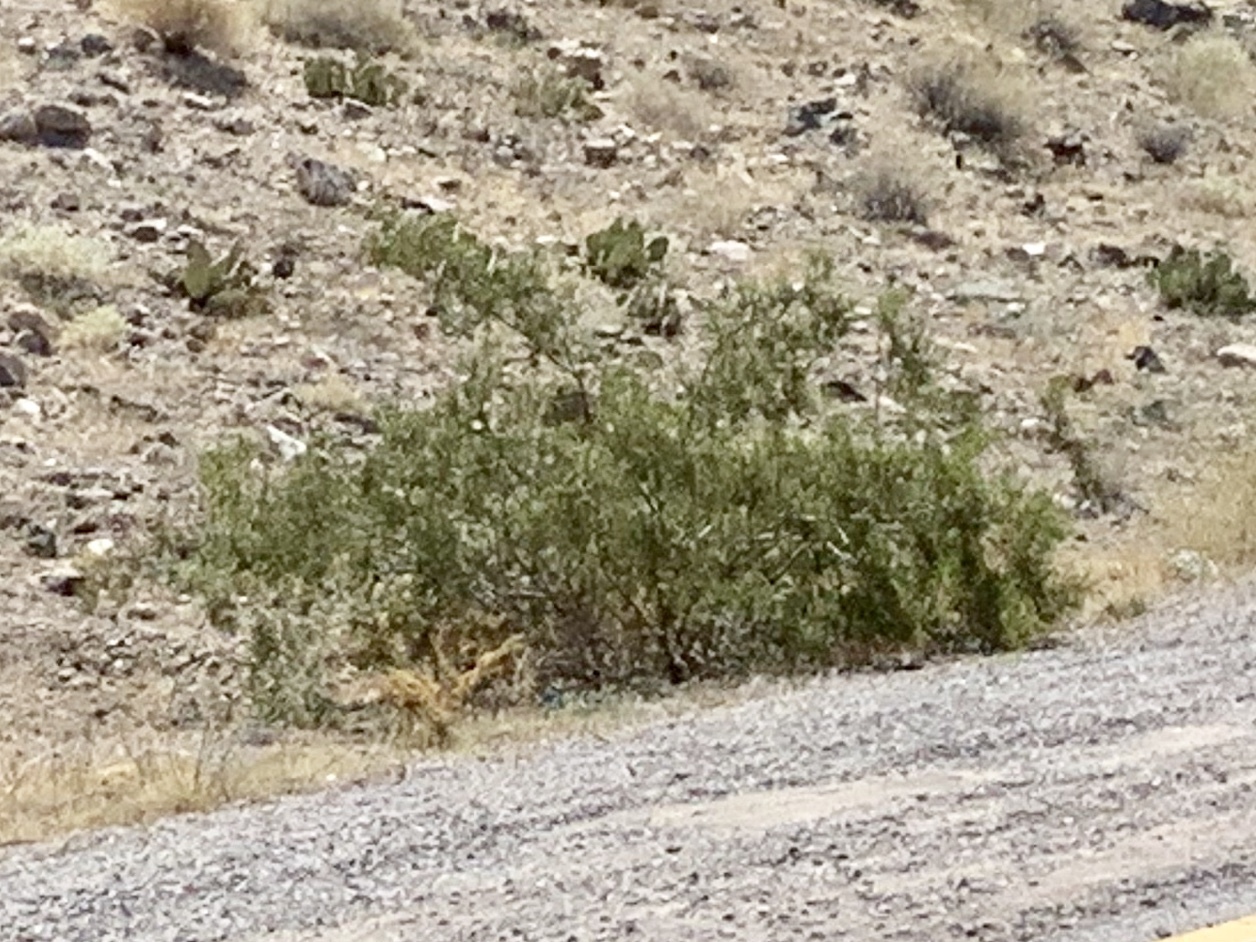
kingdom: Plantae
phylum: Tracheophyta
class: Magnoliopsida
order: Zygophyllales
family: Zygophyllaceae
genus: Larrea
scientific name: Larrea tridentata
